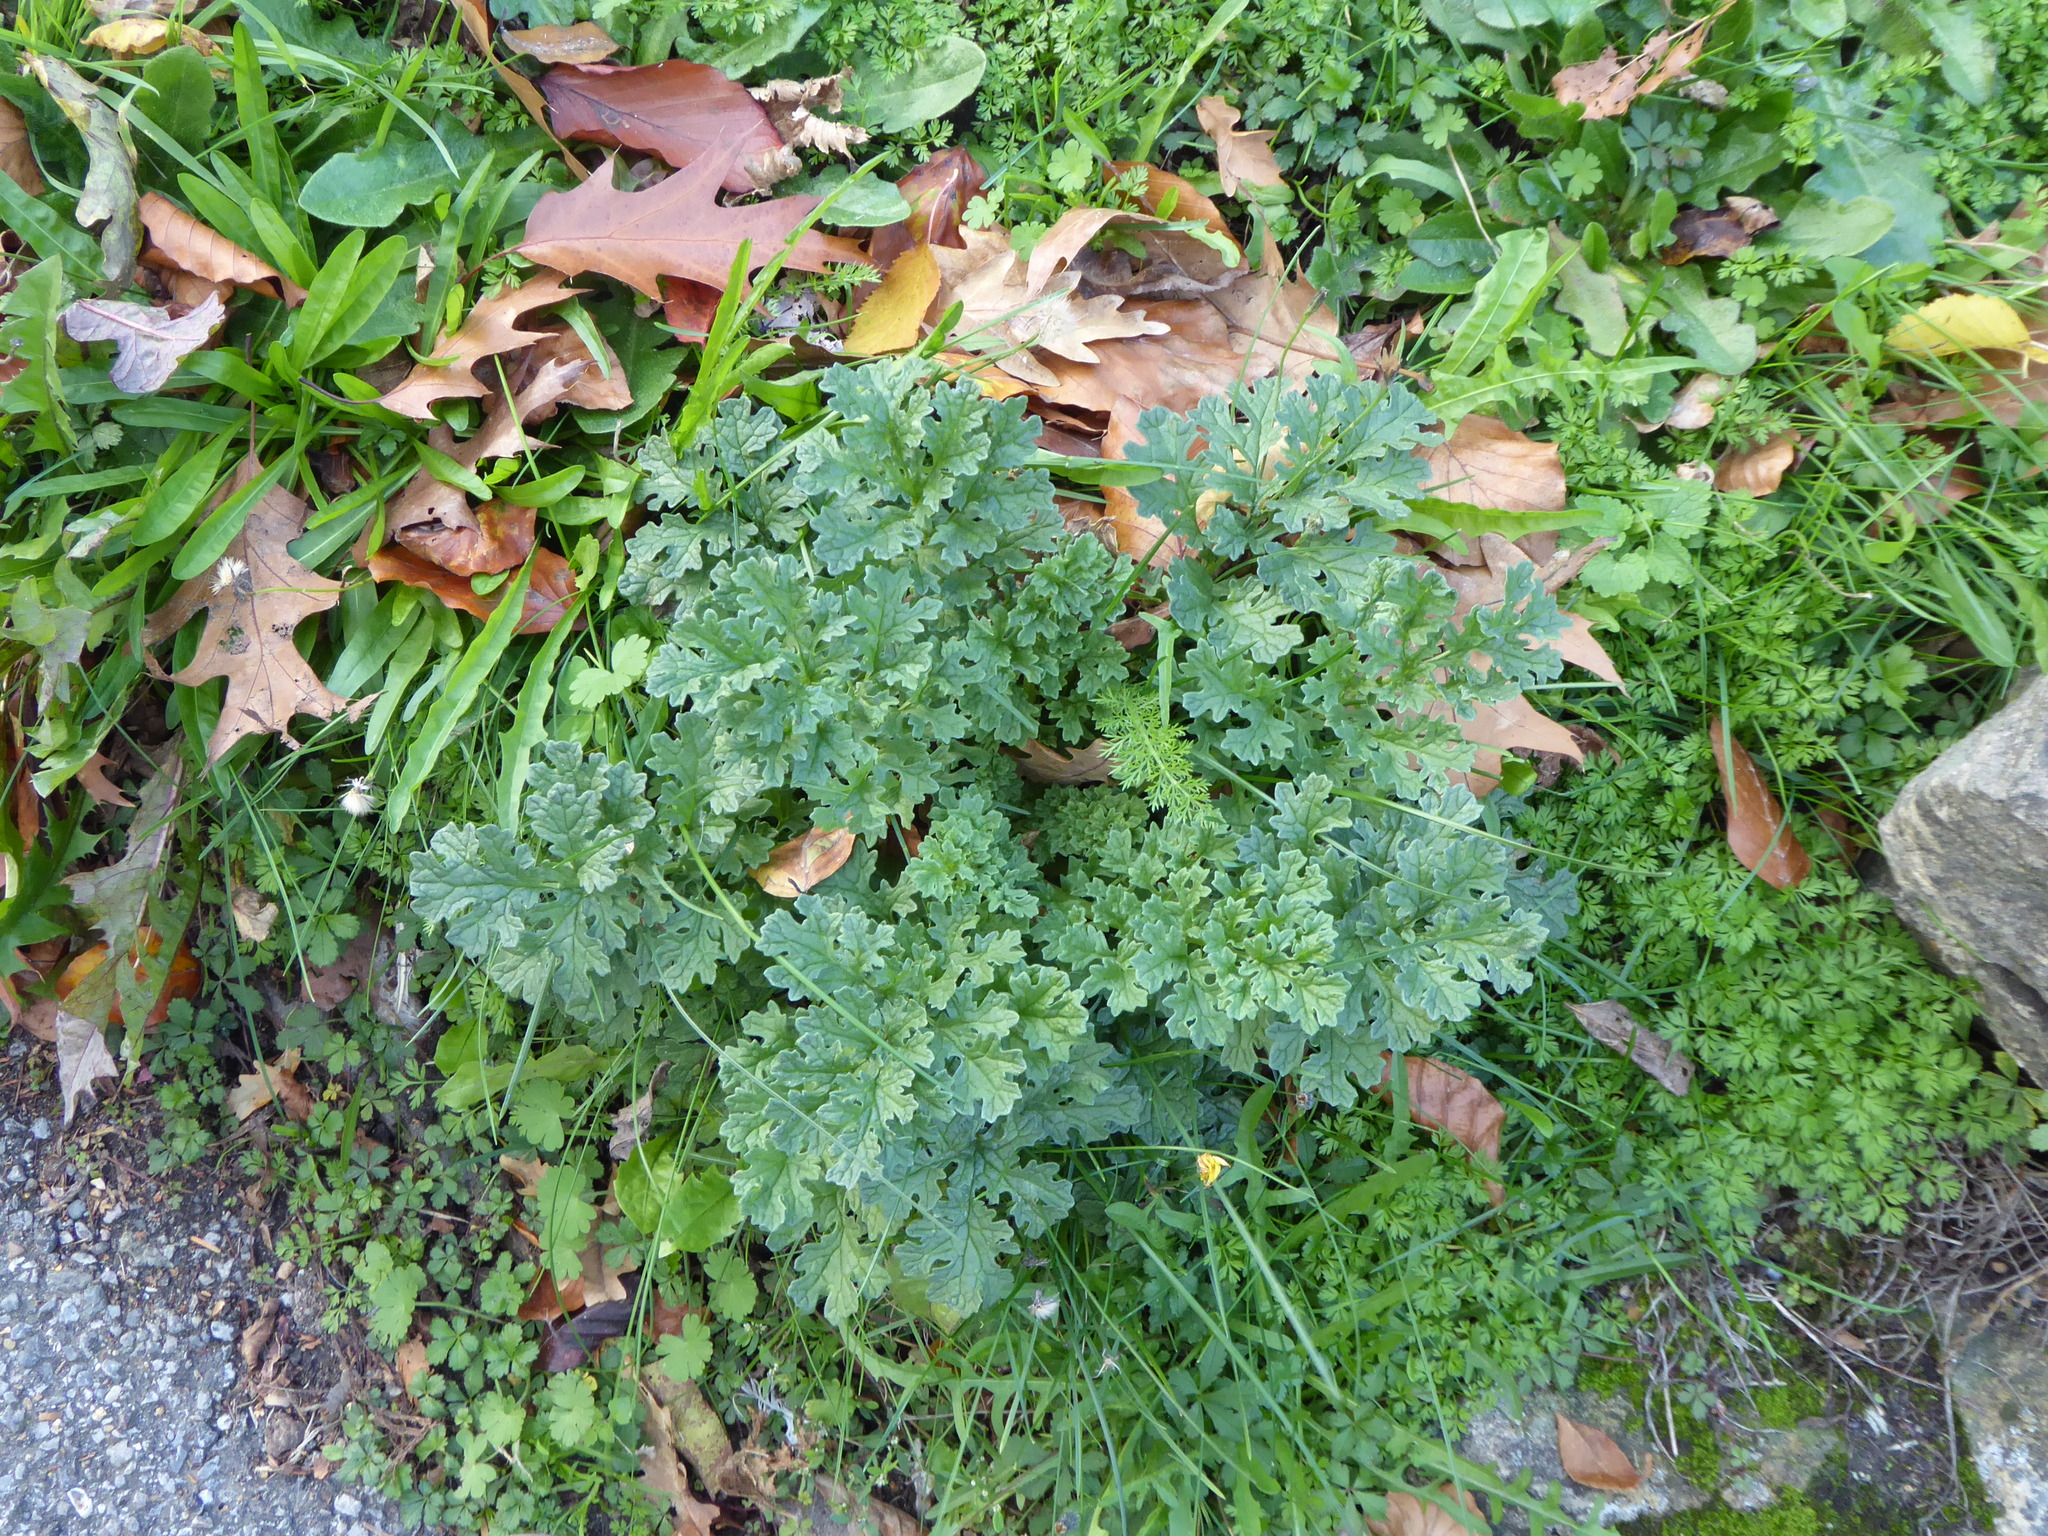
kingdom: Plantae
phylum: Tracheophyta
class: Magnoliopsida
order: Asterales
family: Asteraceae
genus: Jacobaea
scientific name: Jacobaea vulgaris
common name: Stinking willie
